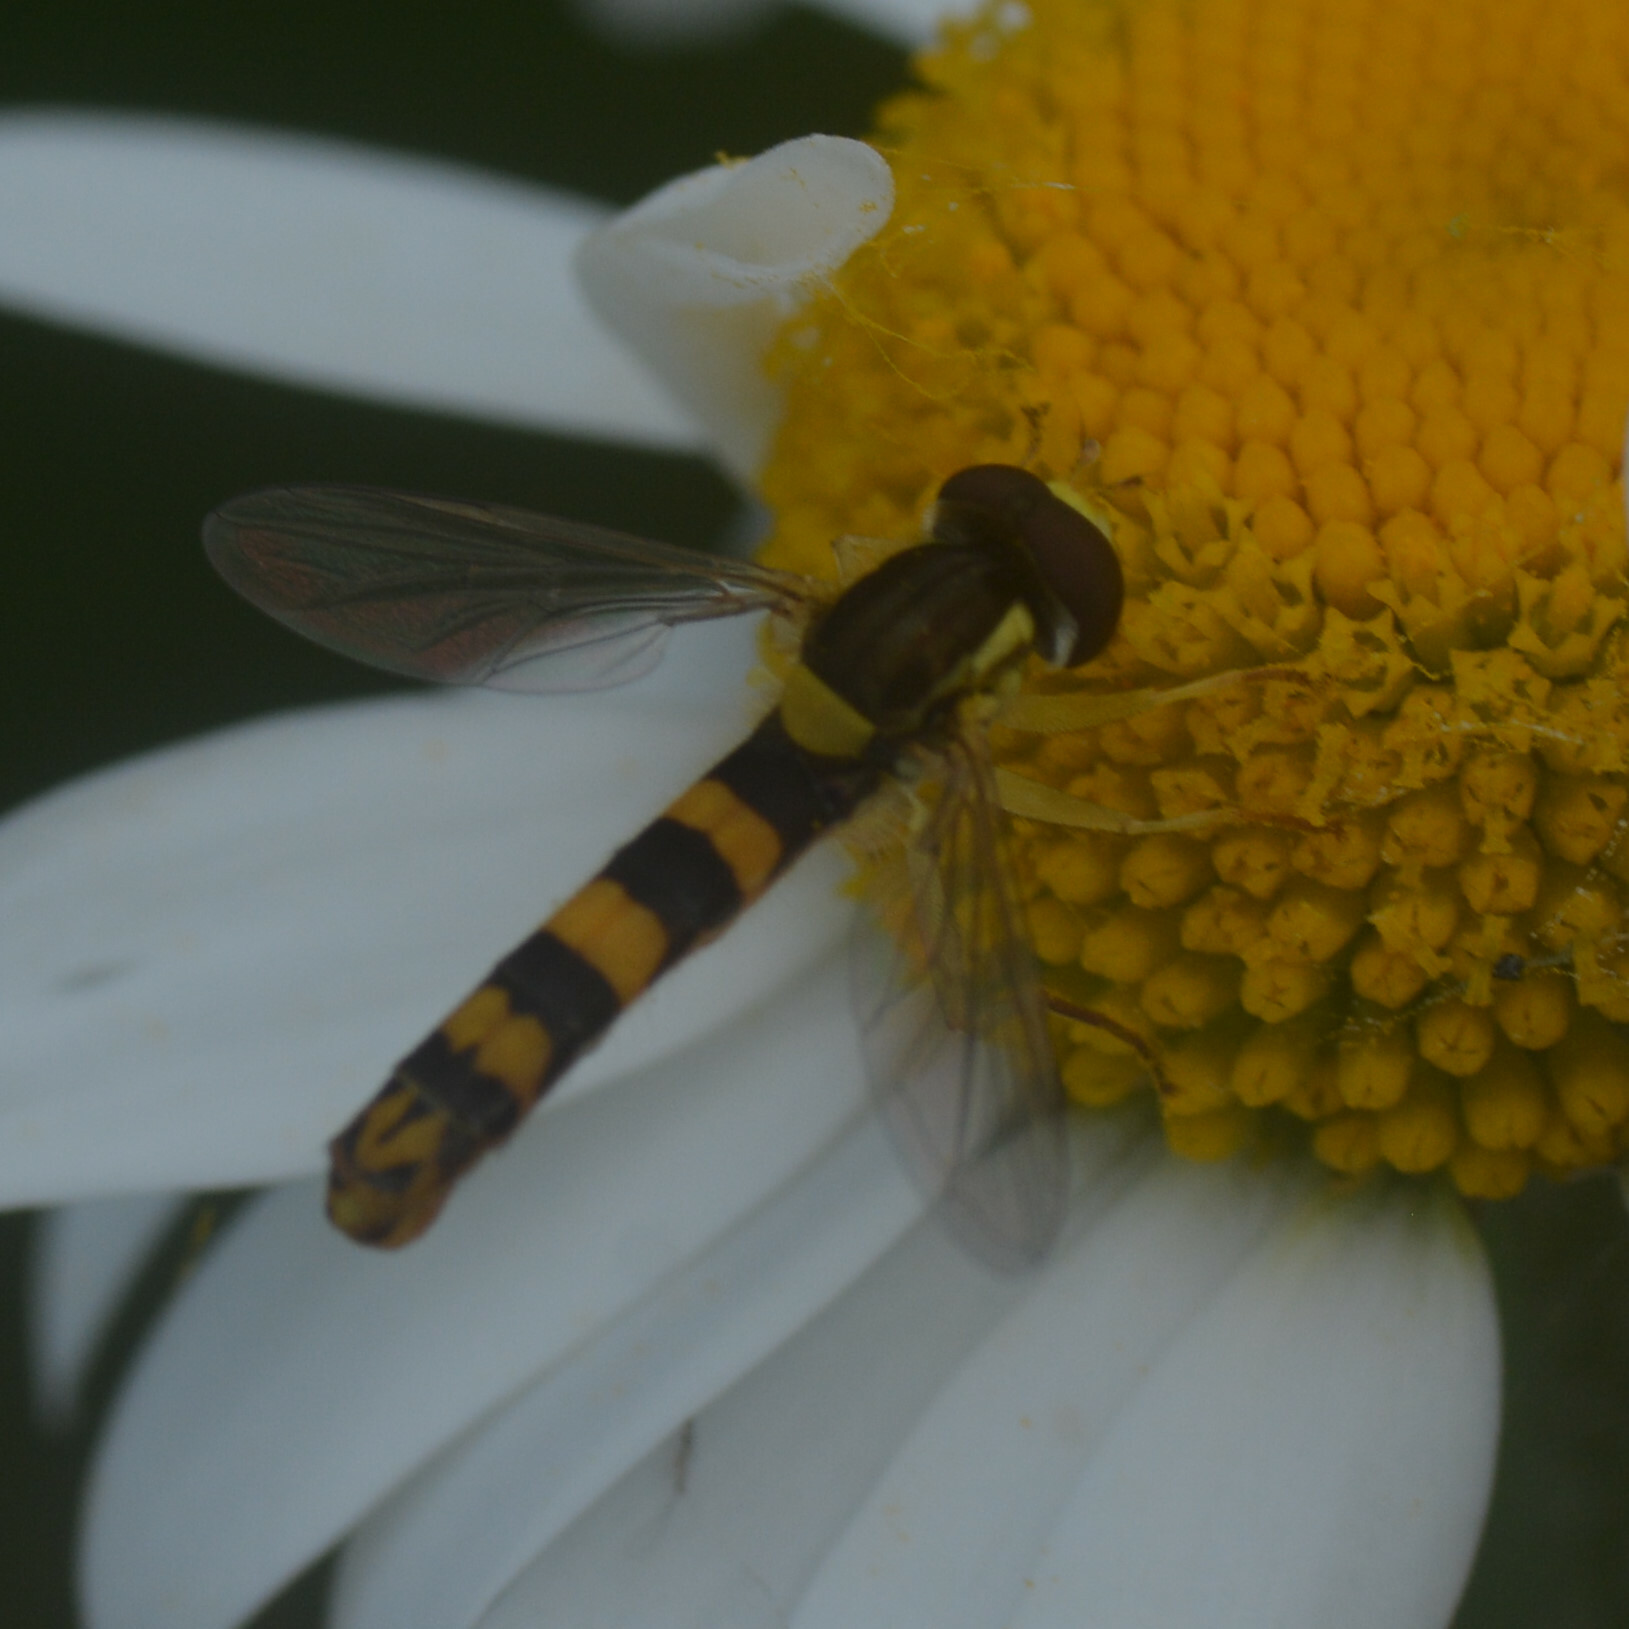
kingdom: Animalia
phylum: Arthropoda
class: Insecta
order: Diptera
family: Syrphidae
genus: Sphaerophoria
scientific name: Sphaerophoria scripta
